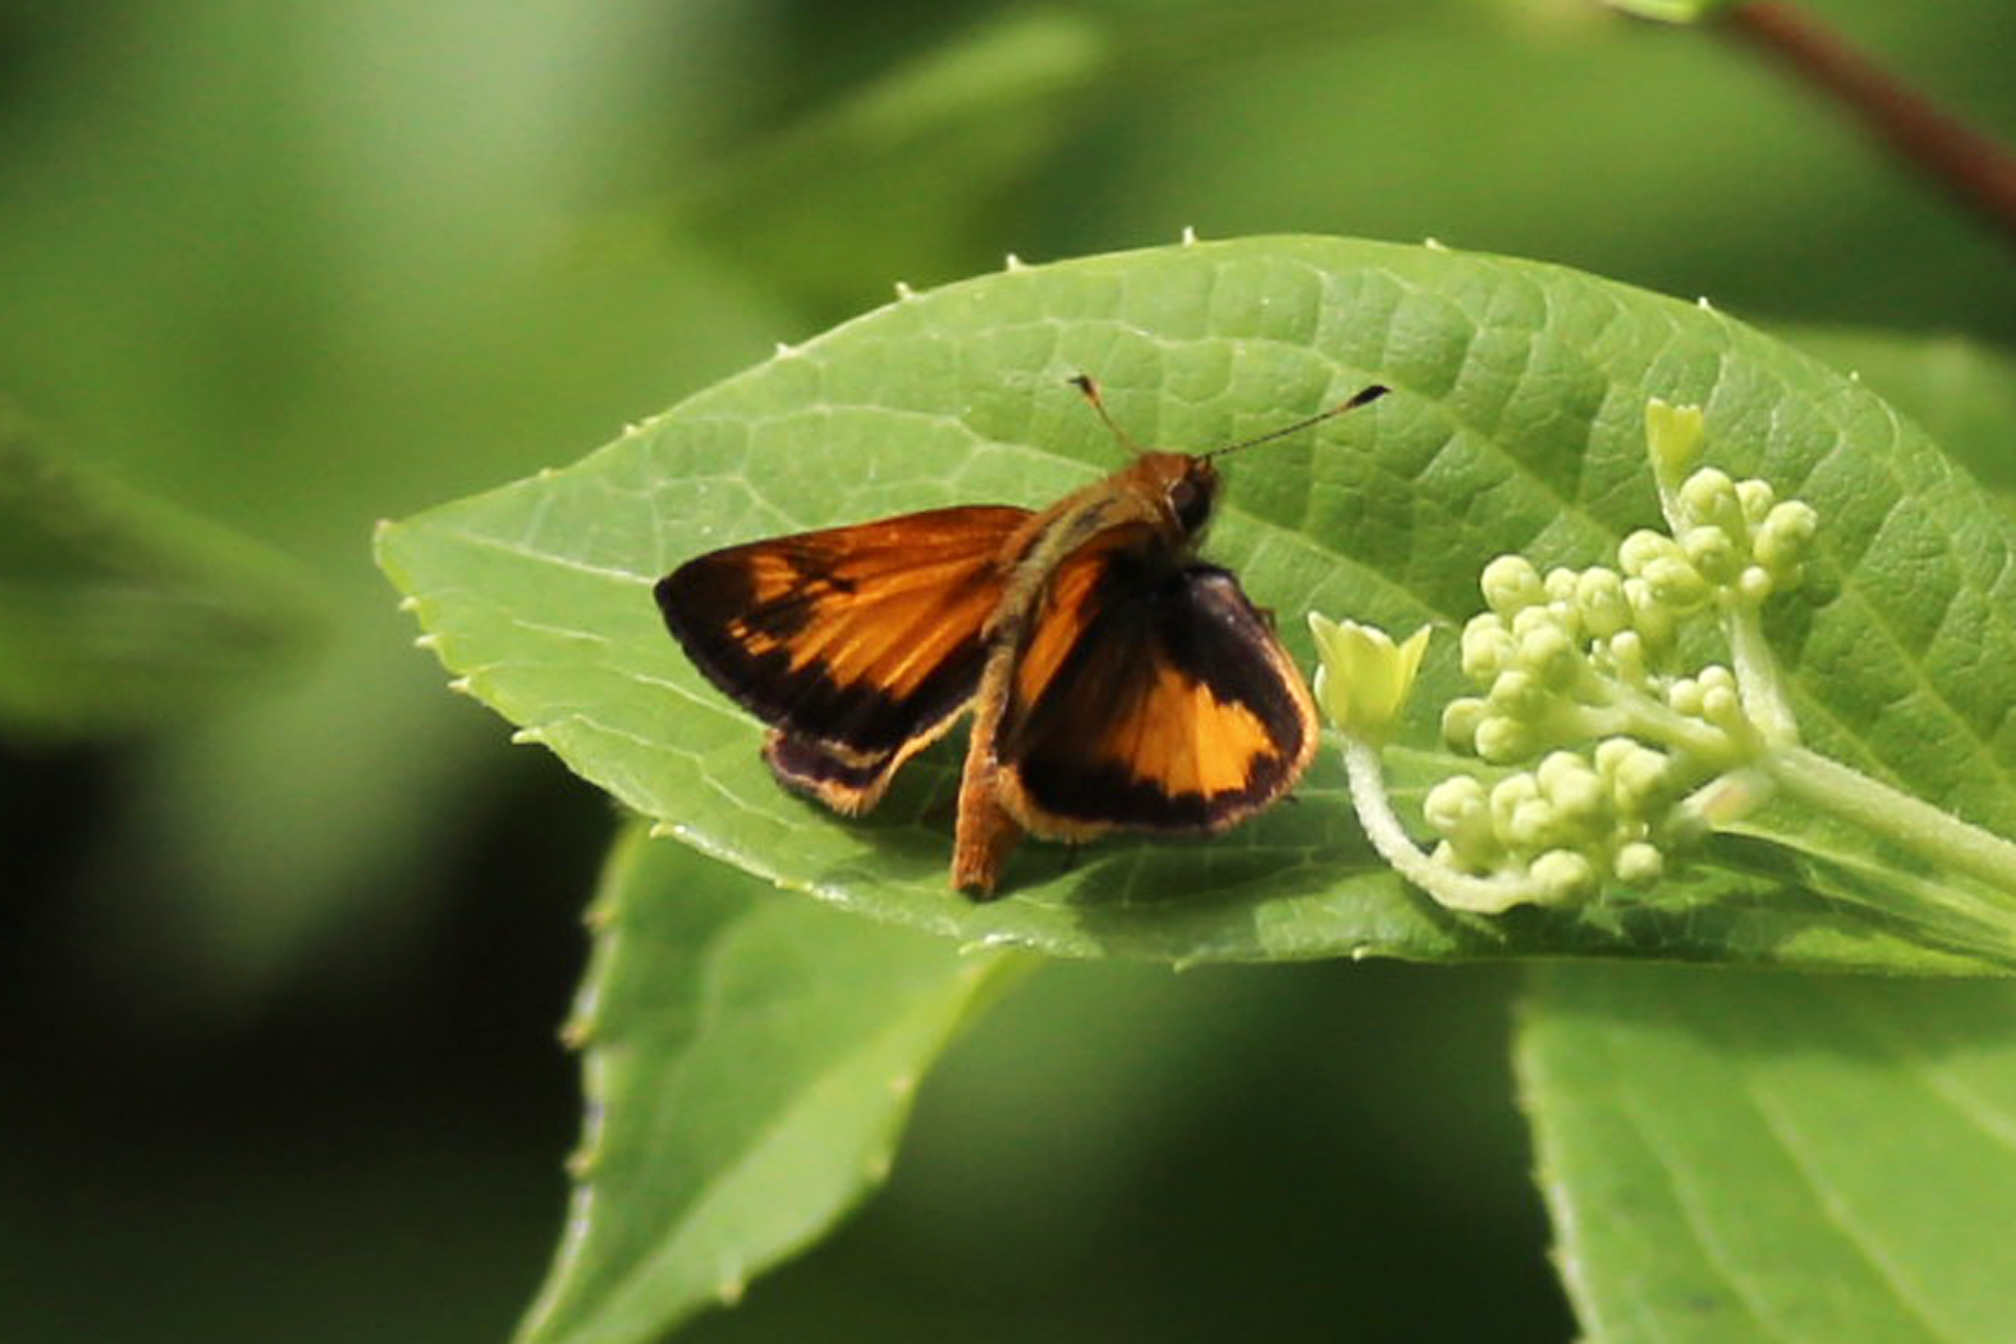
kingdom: Animalia
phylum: Arthropoda
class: Insecta
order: Lepidoptera
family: Hesperiidae
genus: Lon
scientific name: Lon zabulon
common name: Zabulon skipper
